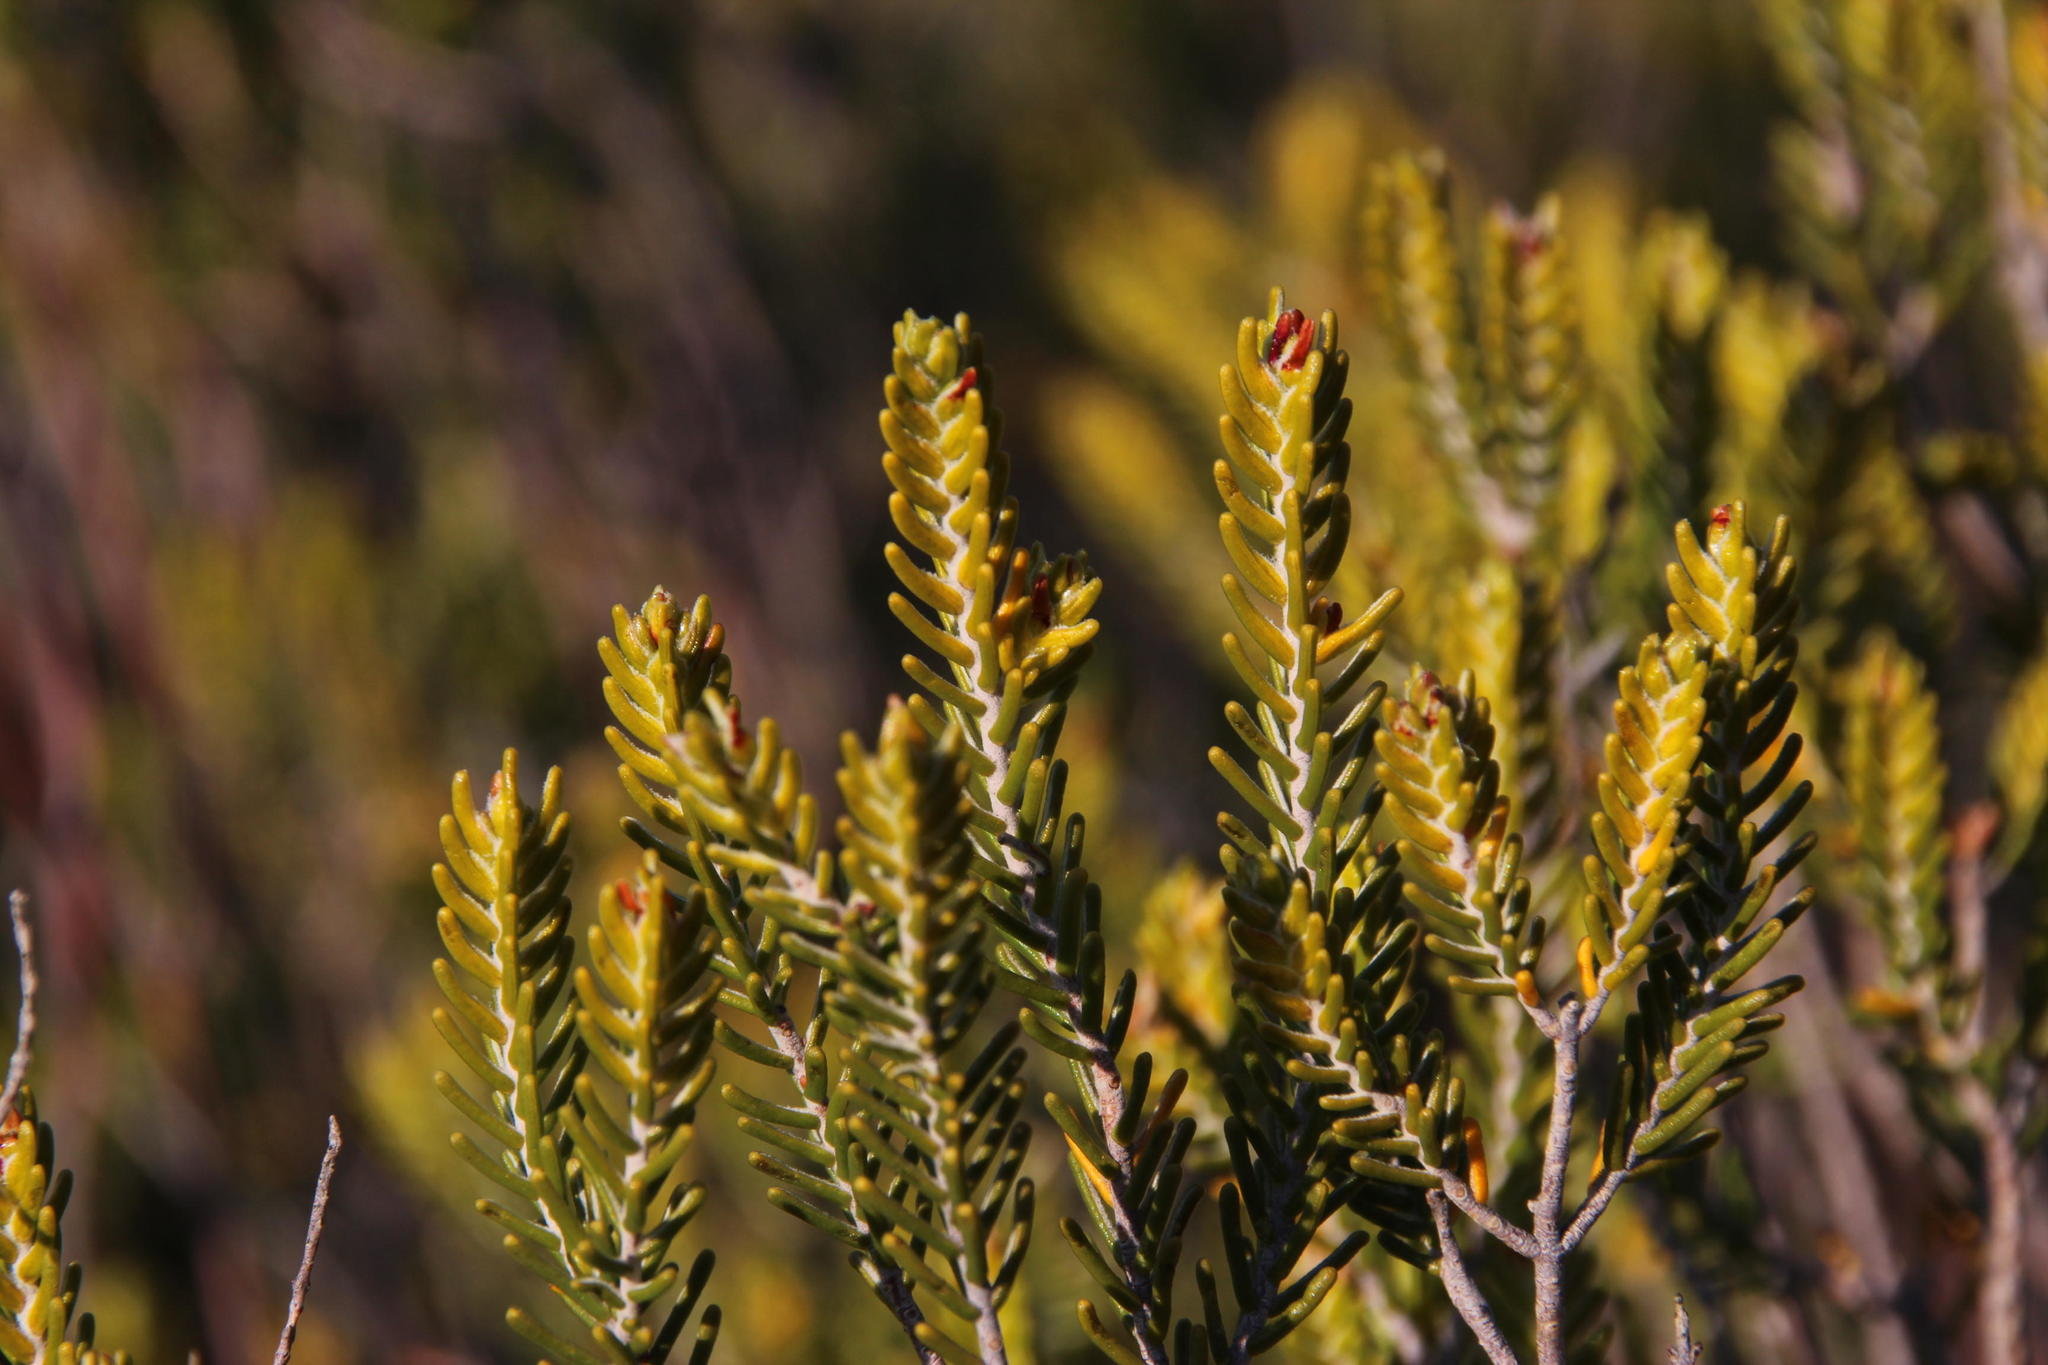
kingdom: Plantae
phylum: Tracheophyta
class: Magnoliopsida
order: Malvales
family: Thymelaeaceae
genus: Passerina
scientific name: Passerina obtusifolia
